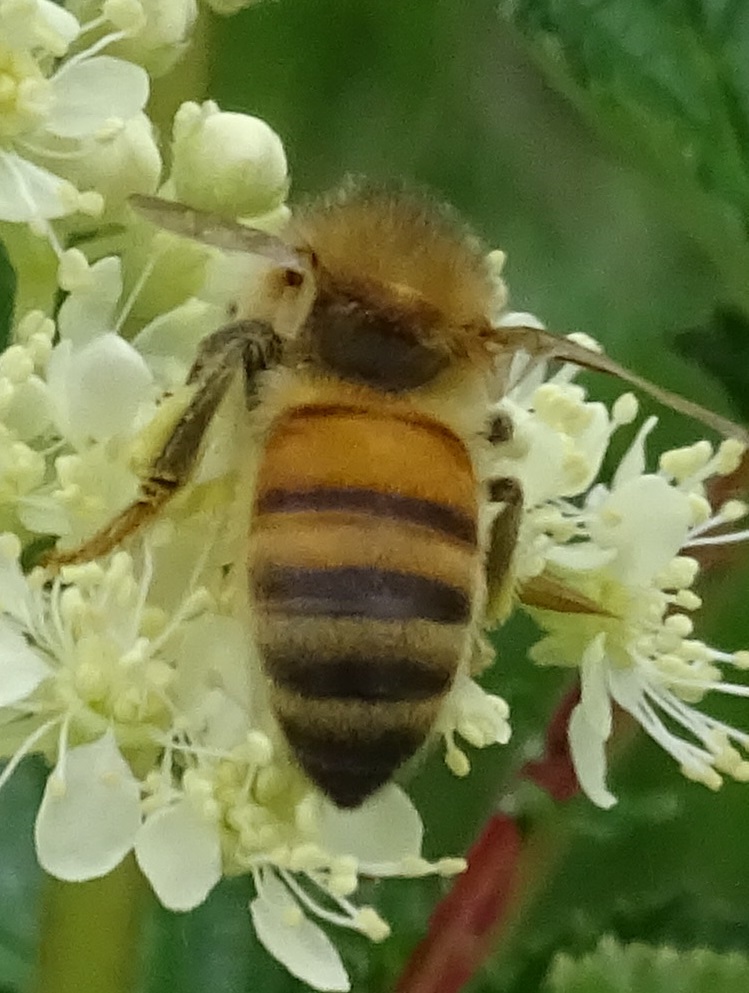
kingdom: Animalia
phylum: Arthropoda
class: Insecta
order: Hymenoptera
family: Apidae
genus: Apis
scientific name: Apis mellifera
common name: Honey bee
